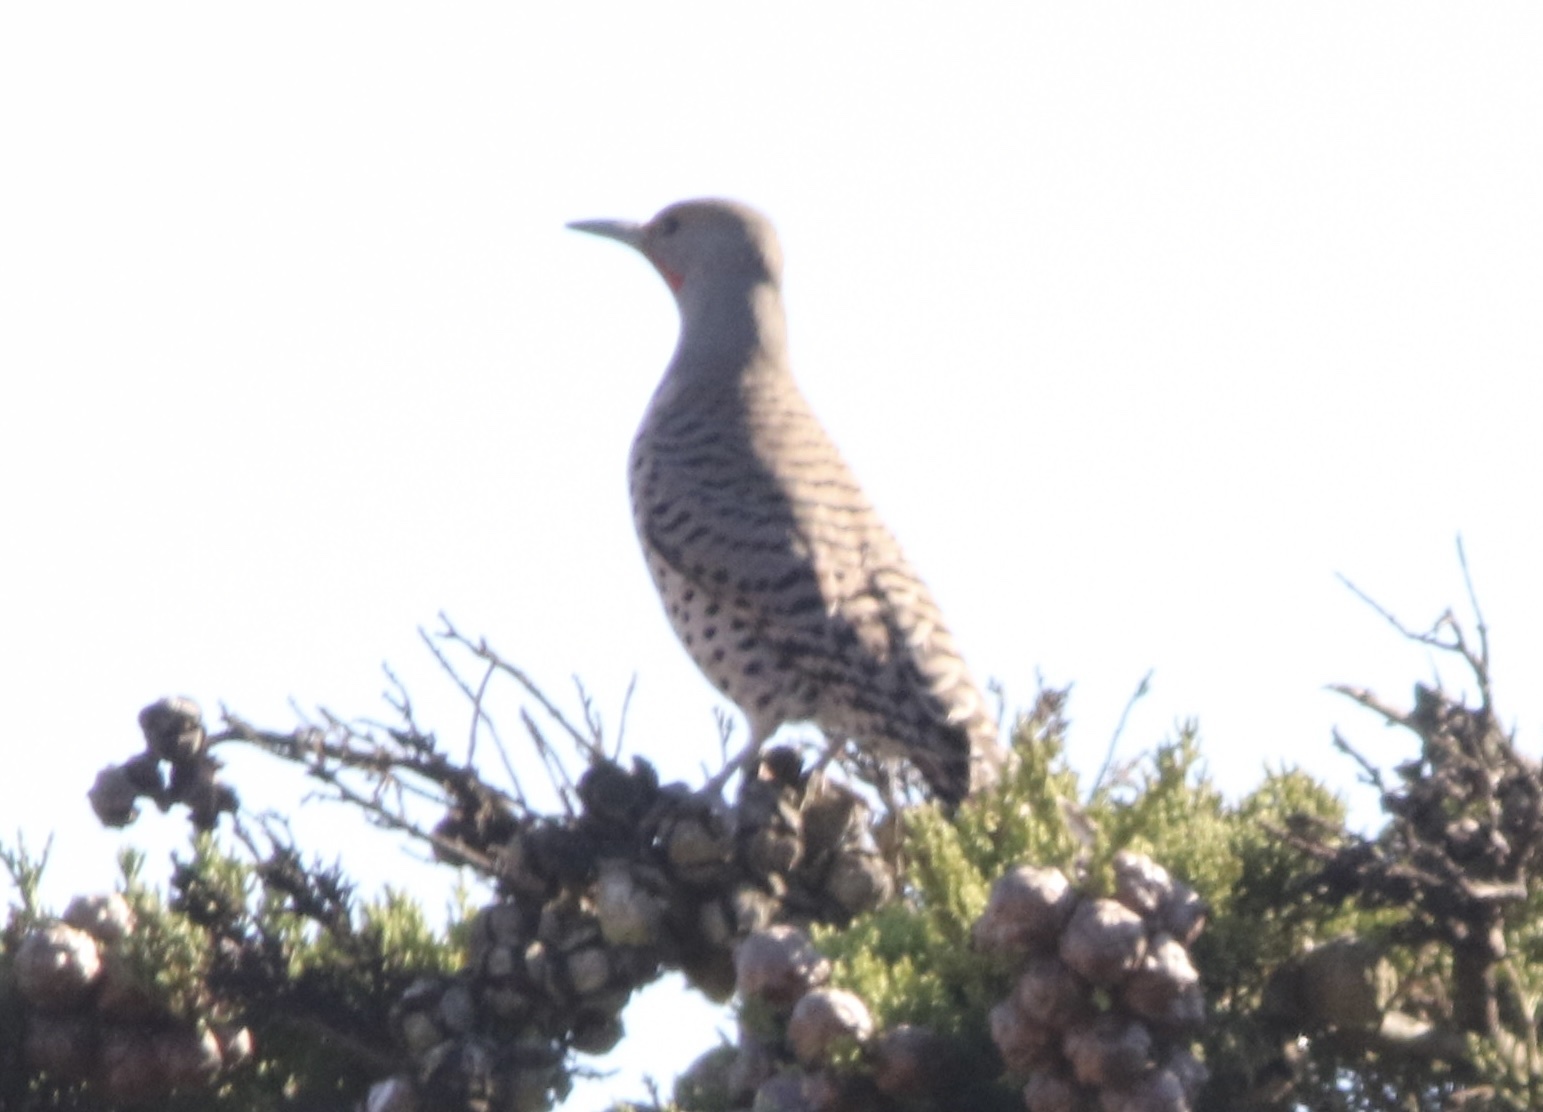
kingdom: Animalia
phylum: Chordata
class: Aves
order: Piciformes
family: Picidae
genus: Colaptes
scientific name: Colaptes auratus
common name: Northern flicker
